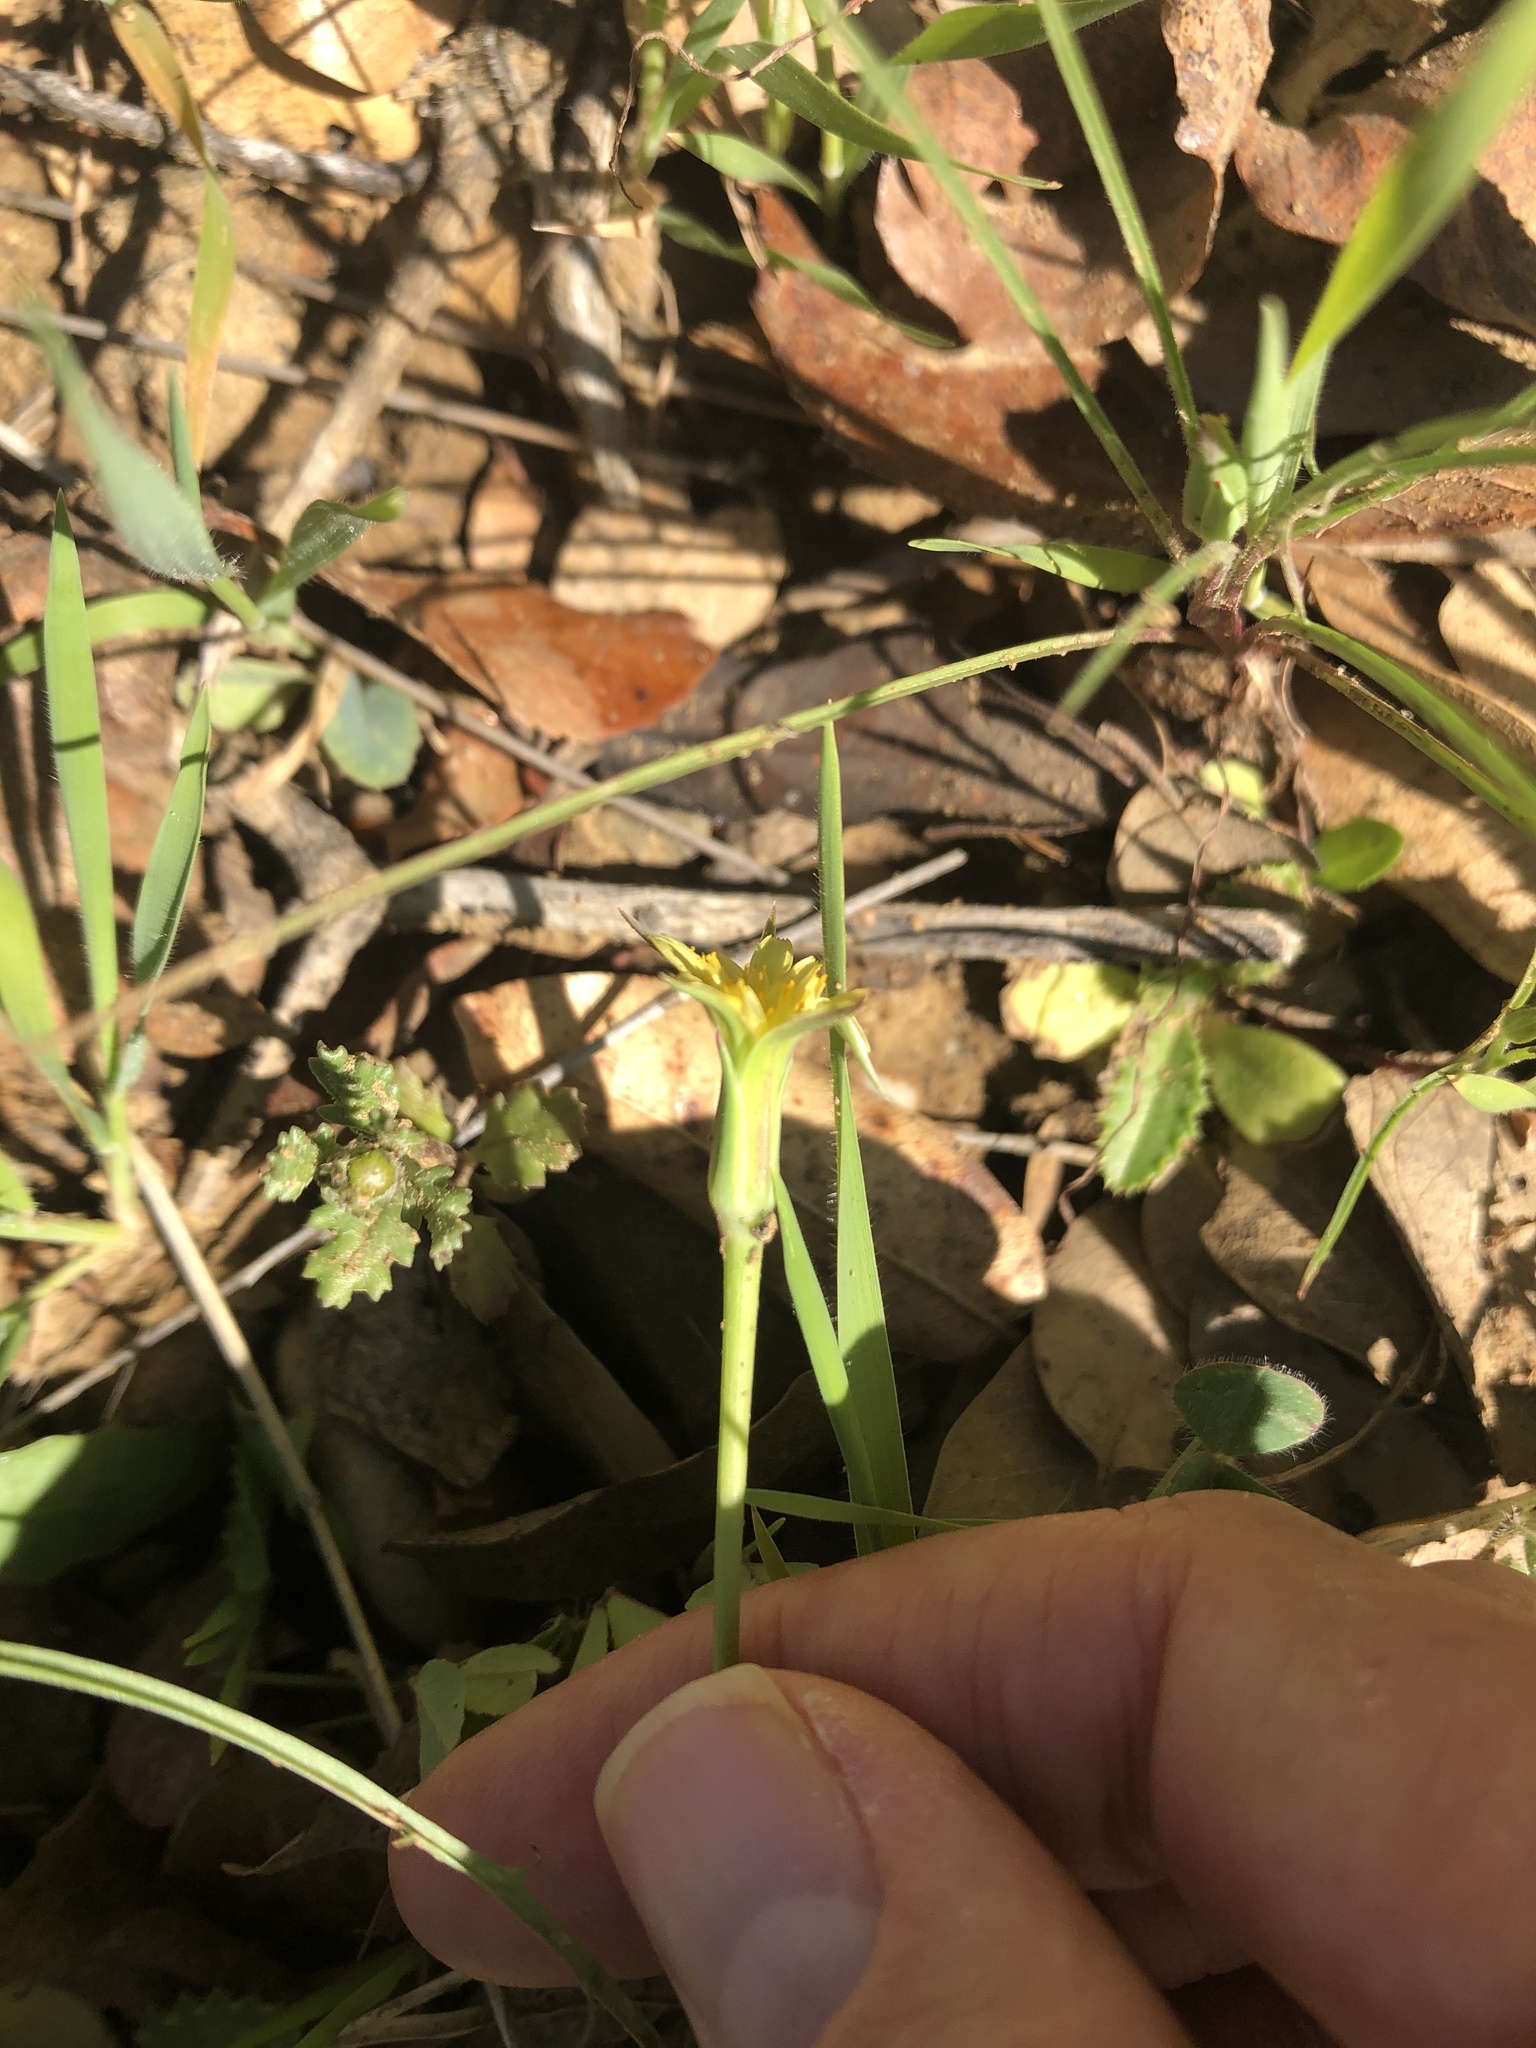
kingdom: Plantae
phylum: Tracheophyta
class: Magnoliopsida
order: Asterales
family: Asteraceae
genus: Microseris
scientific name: Microseris lindleyi
